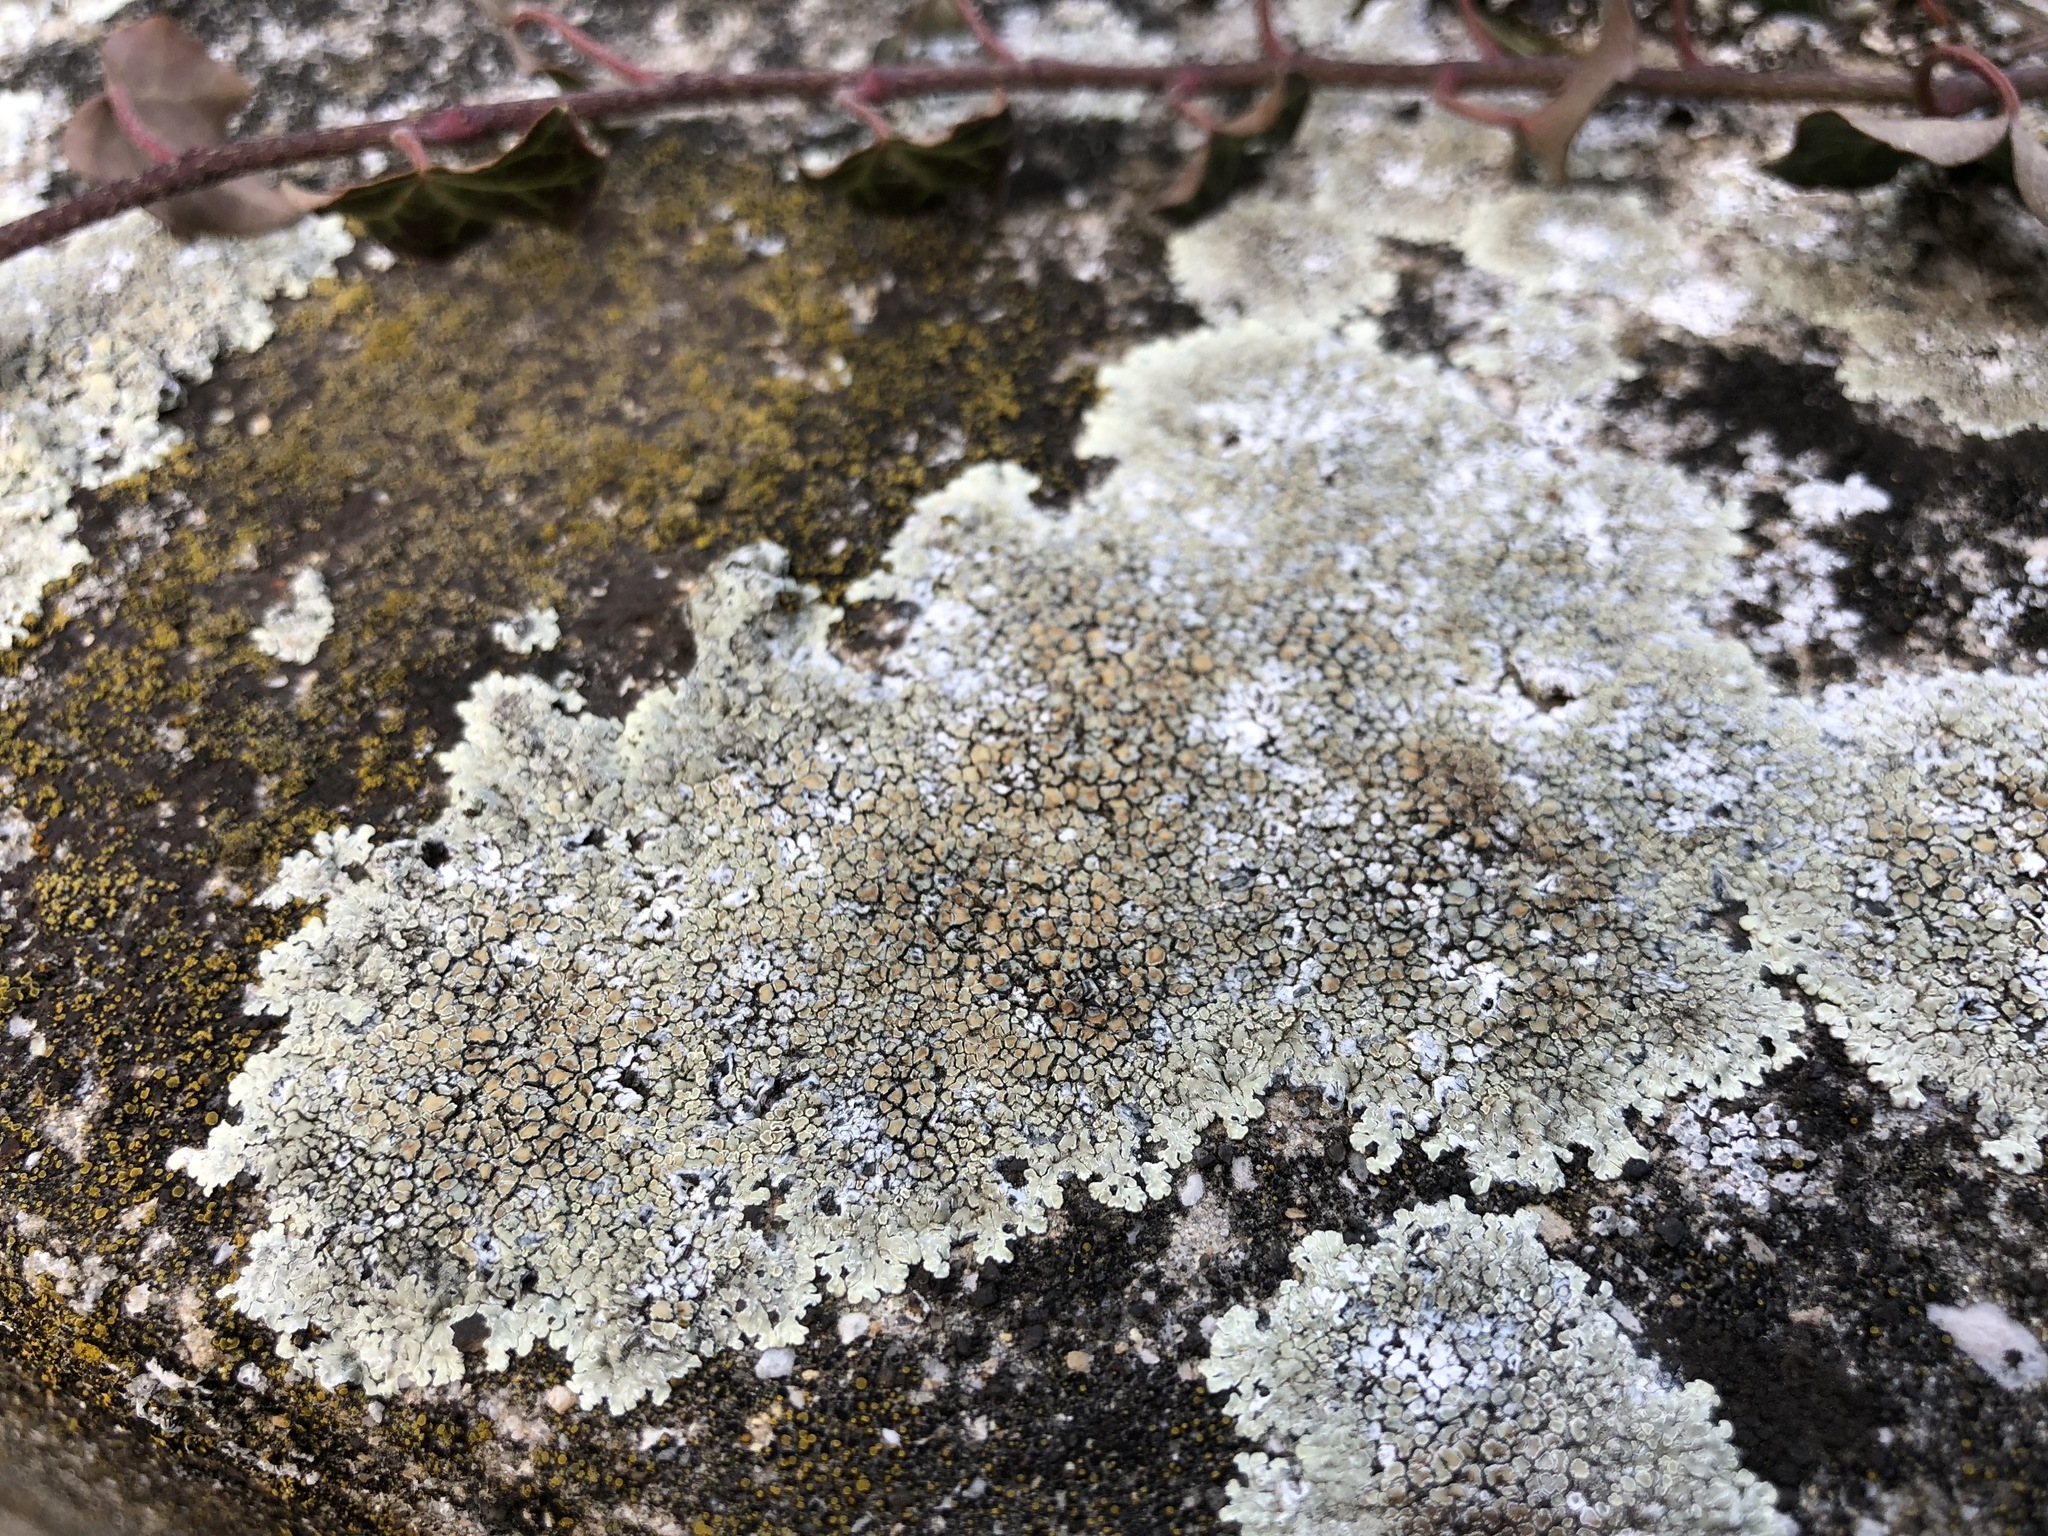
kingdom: Fungi
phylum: Ascomycota
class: Lecanoromycetes
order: Lecanorales
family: Lecanoraceae
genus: Protoparmeliopsis
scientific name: Protoparmeliopsis muralis
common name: Stonewall rim lichen
